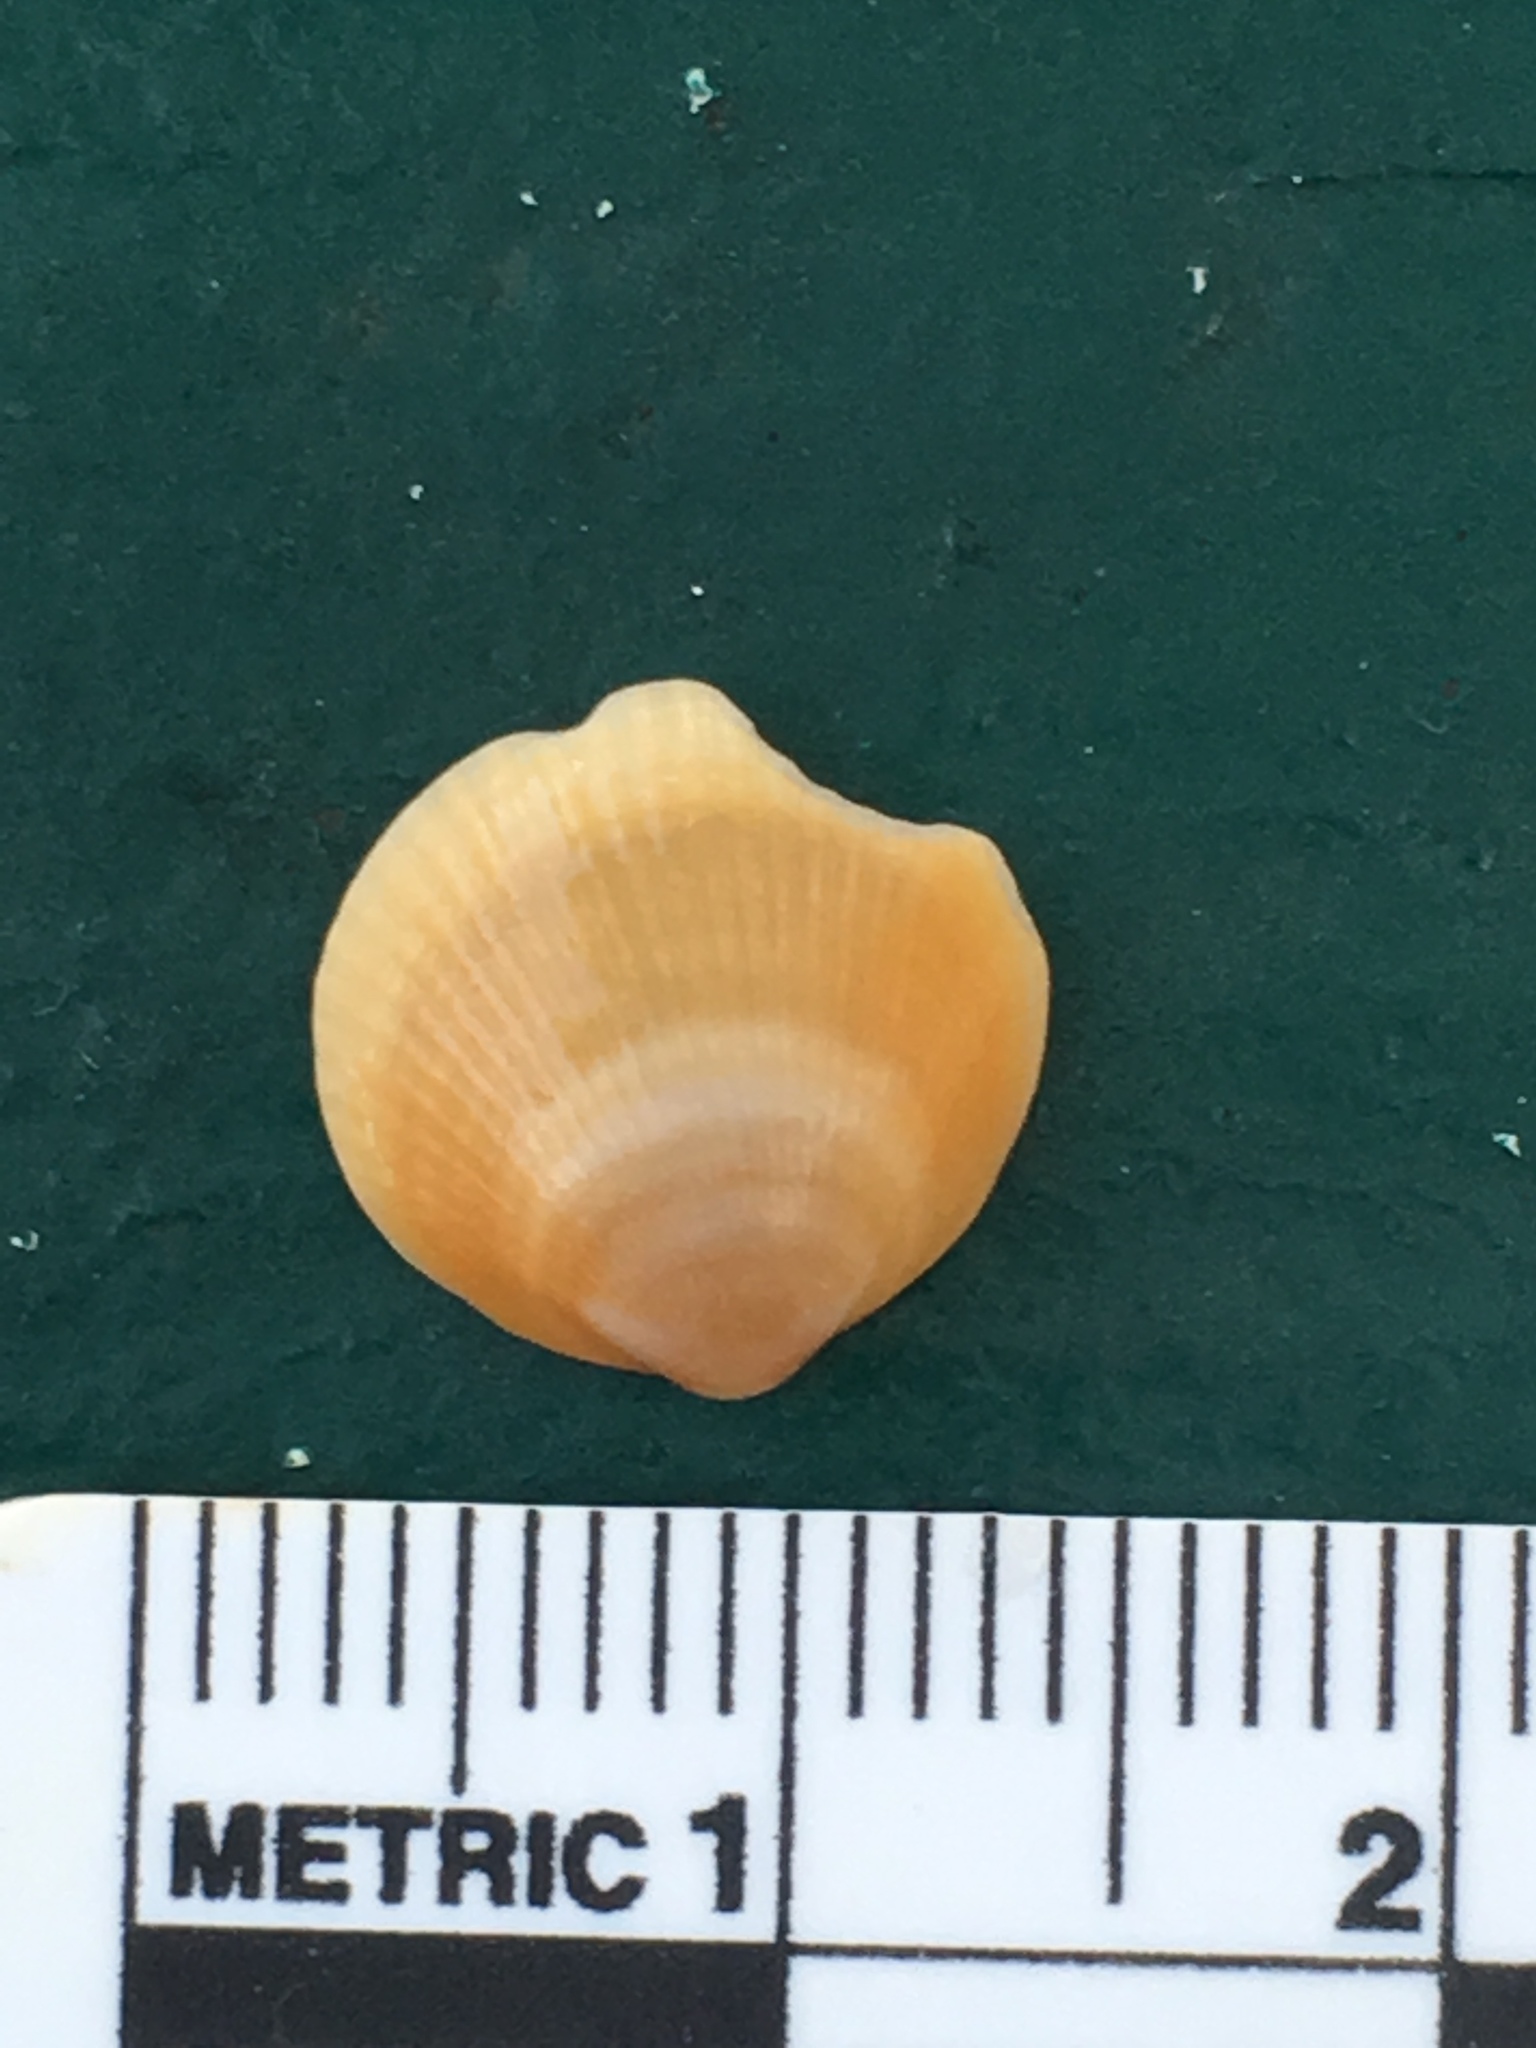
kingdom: Animalia
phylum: Mollusca
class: Bivalvia
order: Arcida
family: Glycymerididae
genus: Glycymeris
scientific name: Glycymeris spectralis
